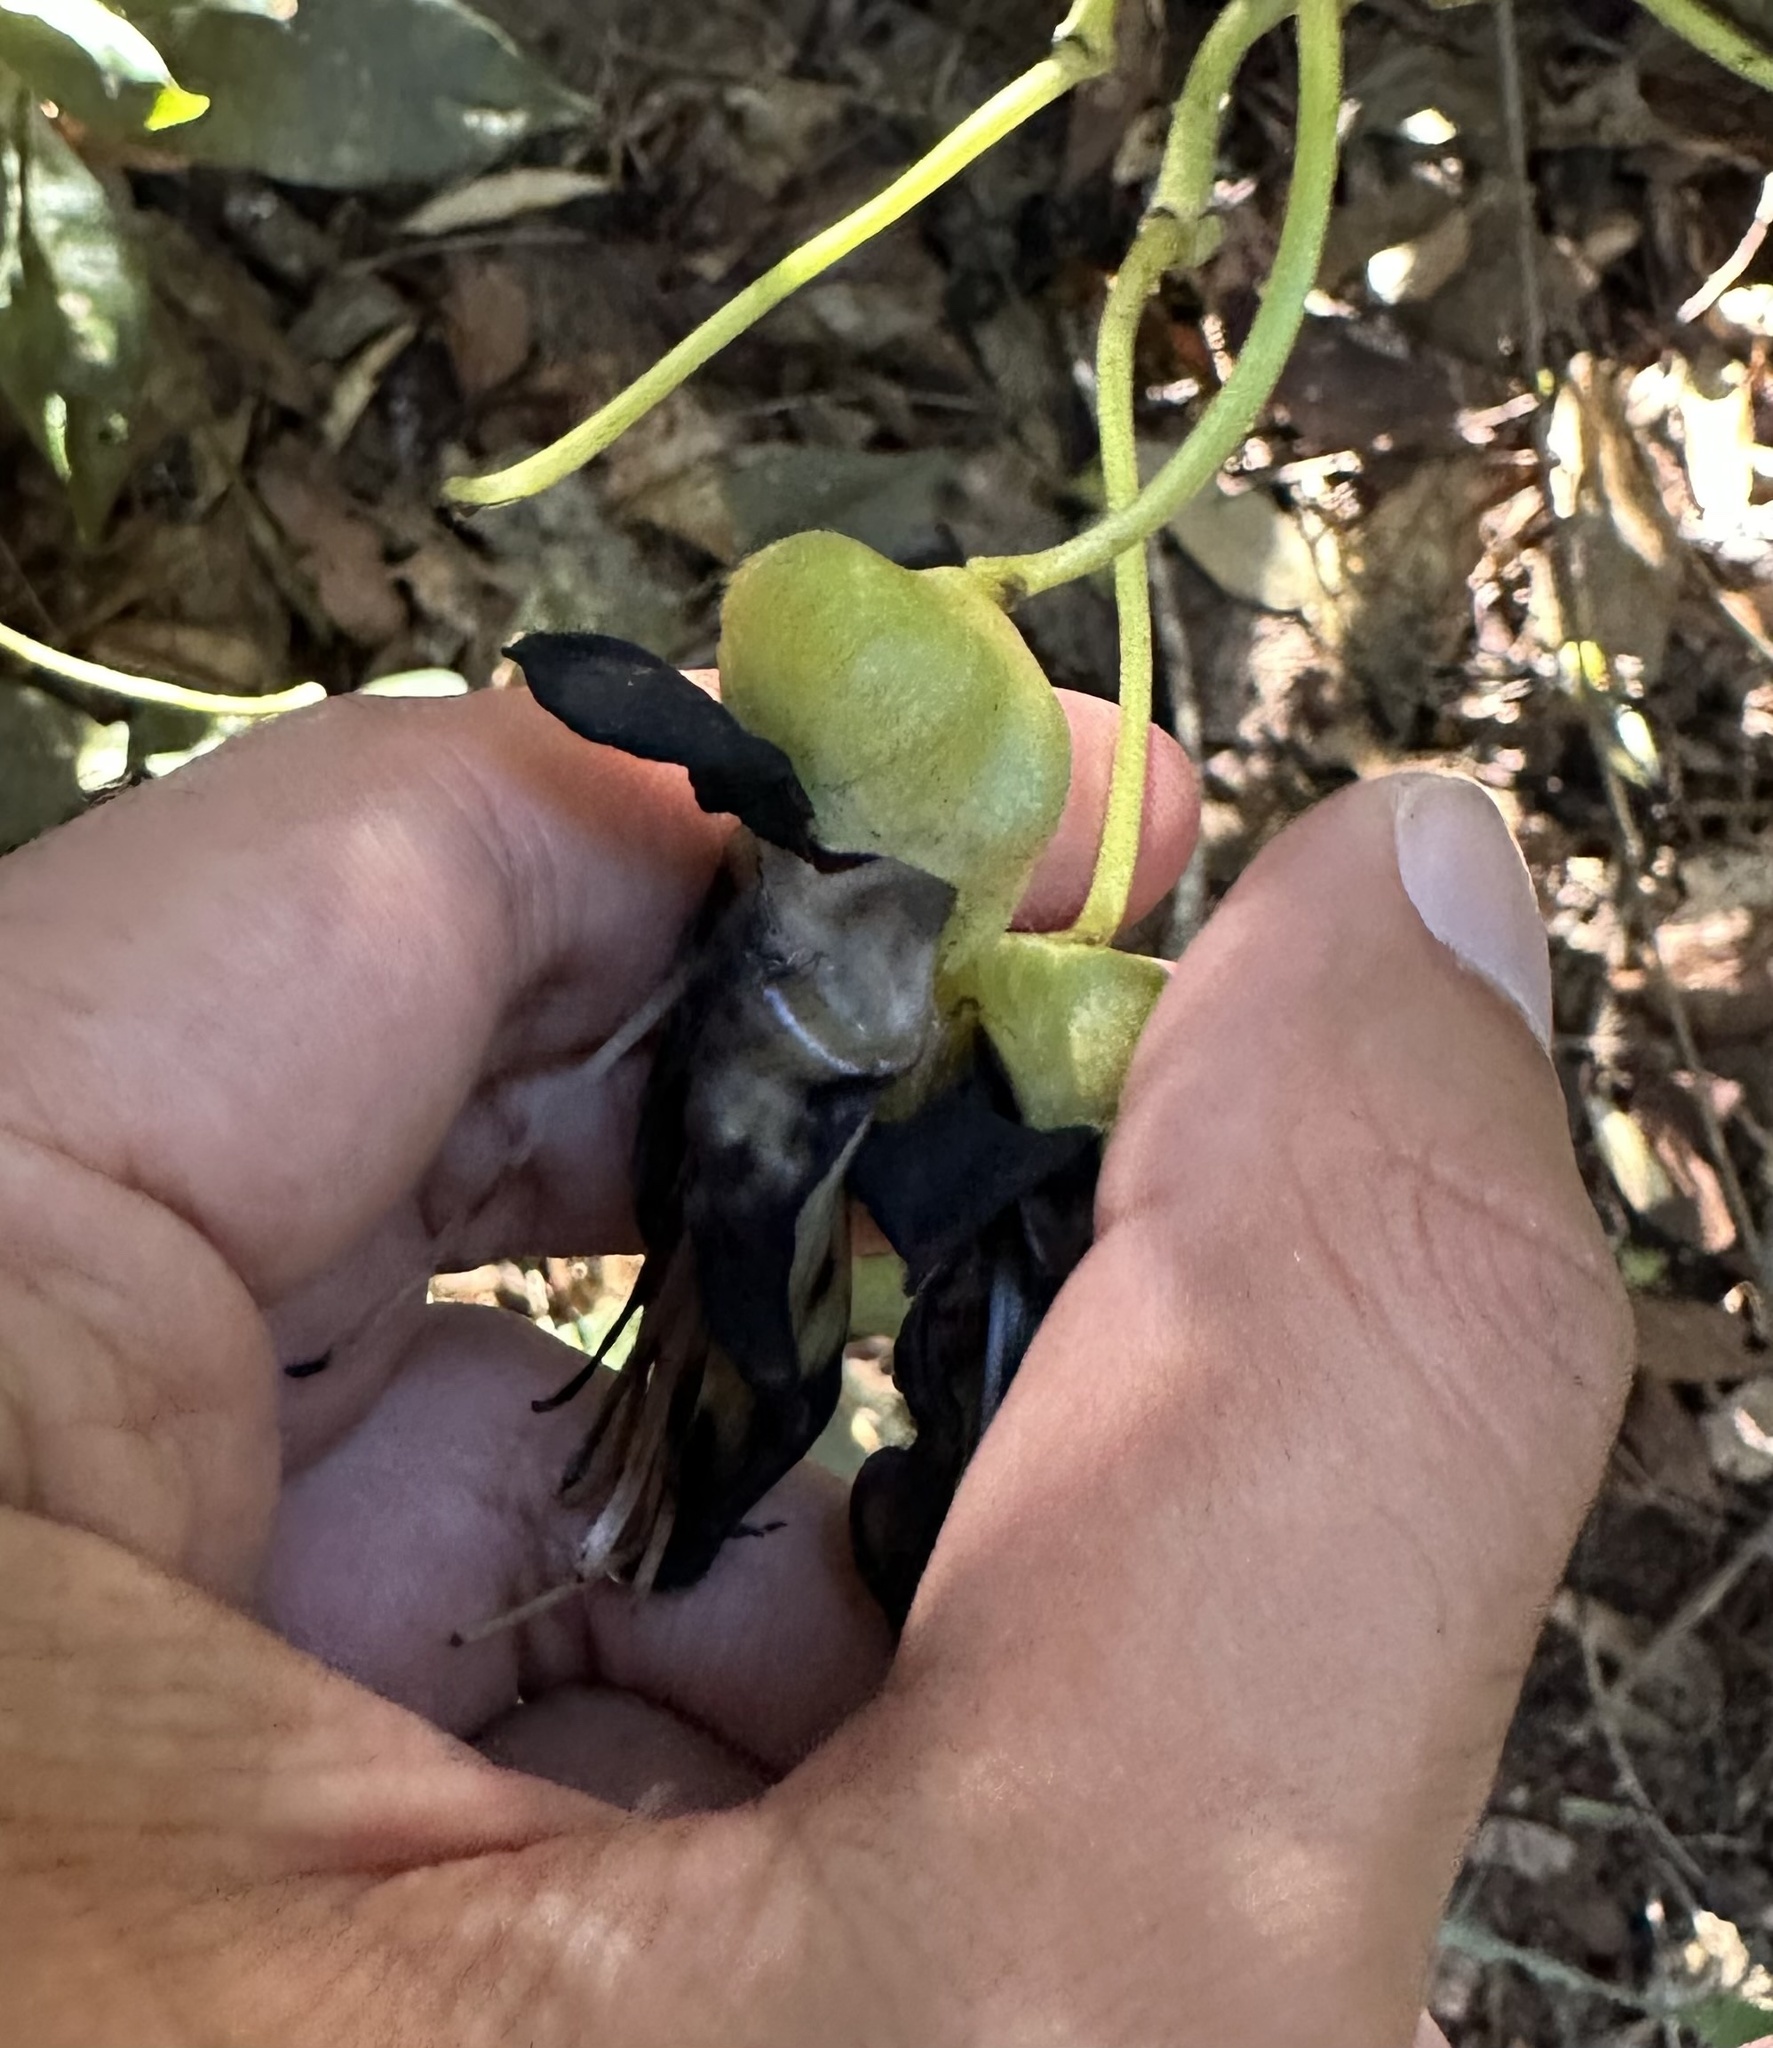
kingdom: Plantae
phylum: Tracheophyta
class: Magnoliopsida
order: Fabales
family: Fabaceae
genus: Mucuna
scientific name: Mucuna gigantea
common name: Black-bean
